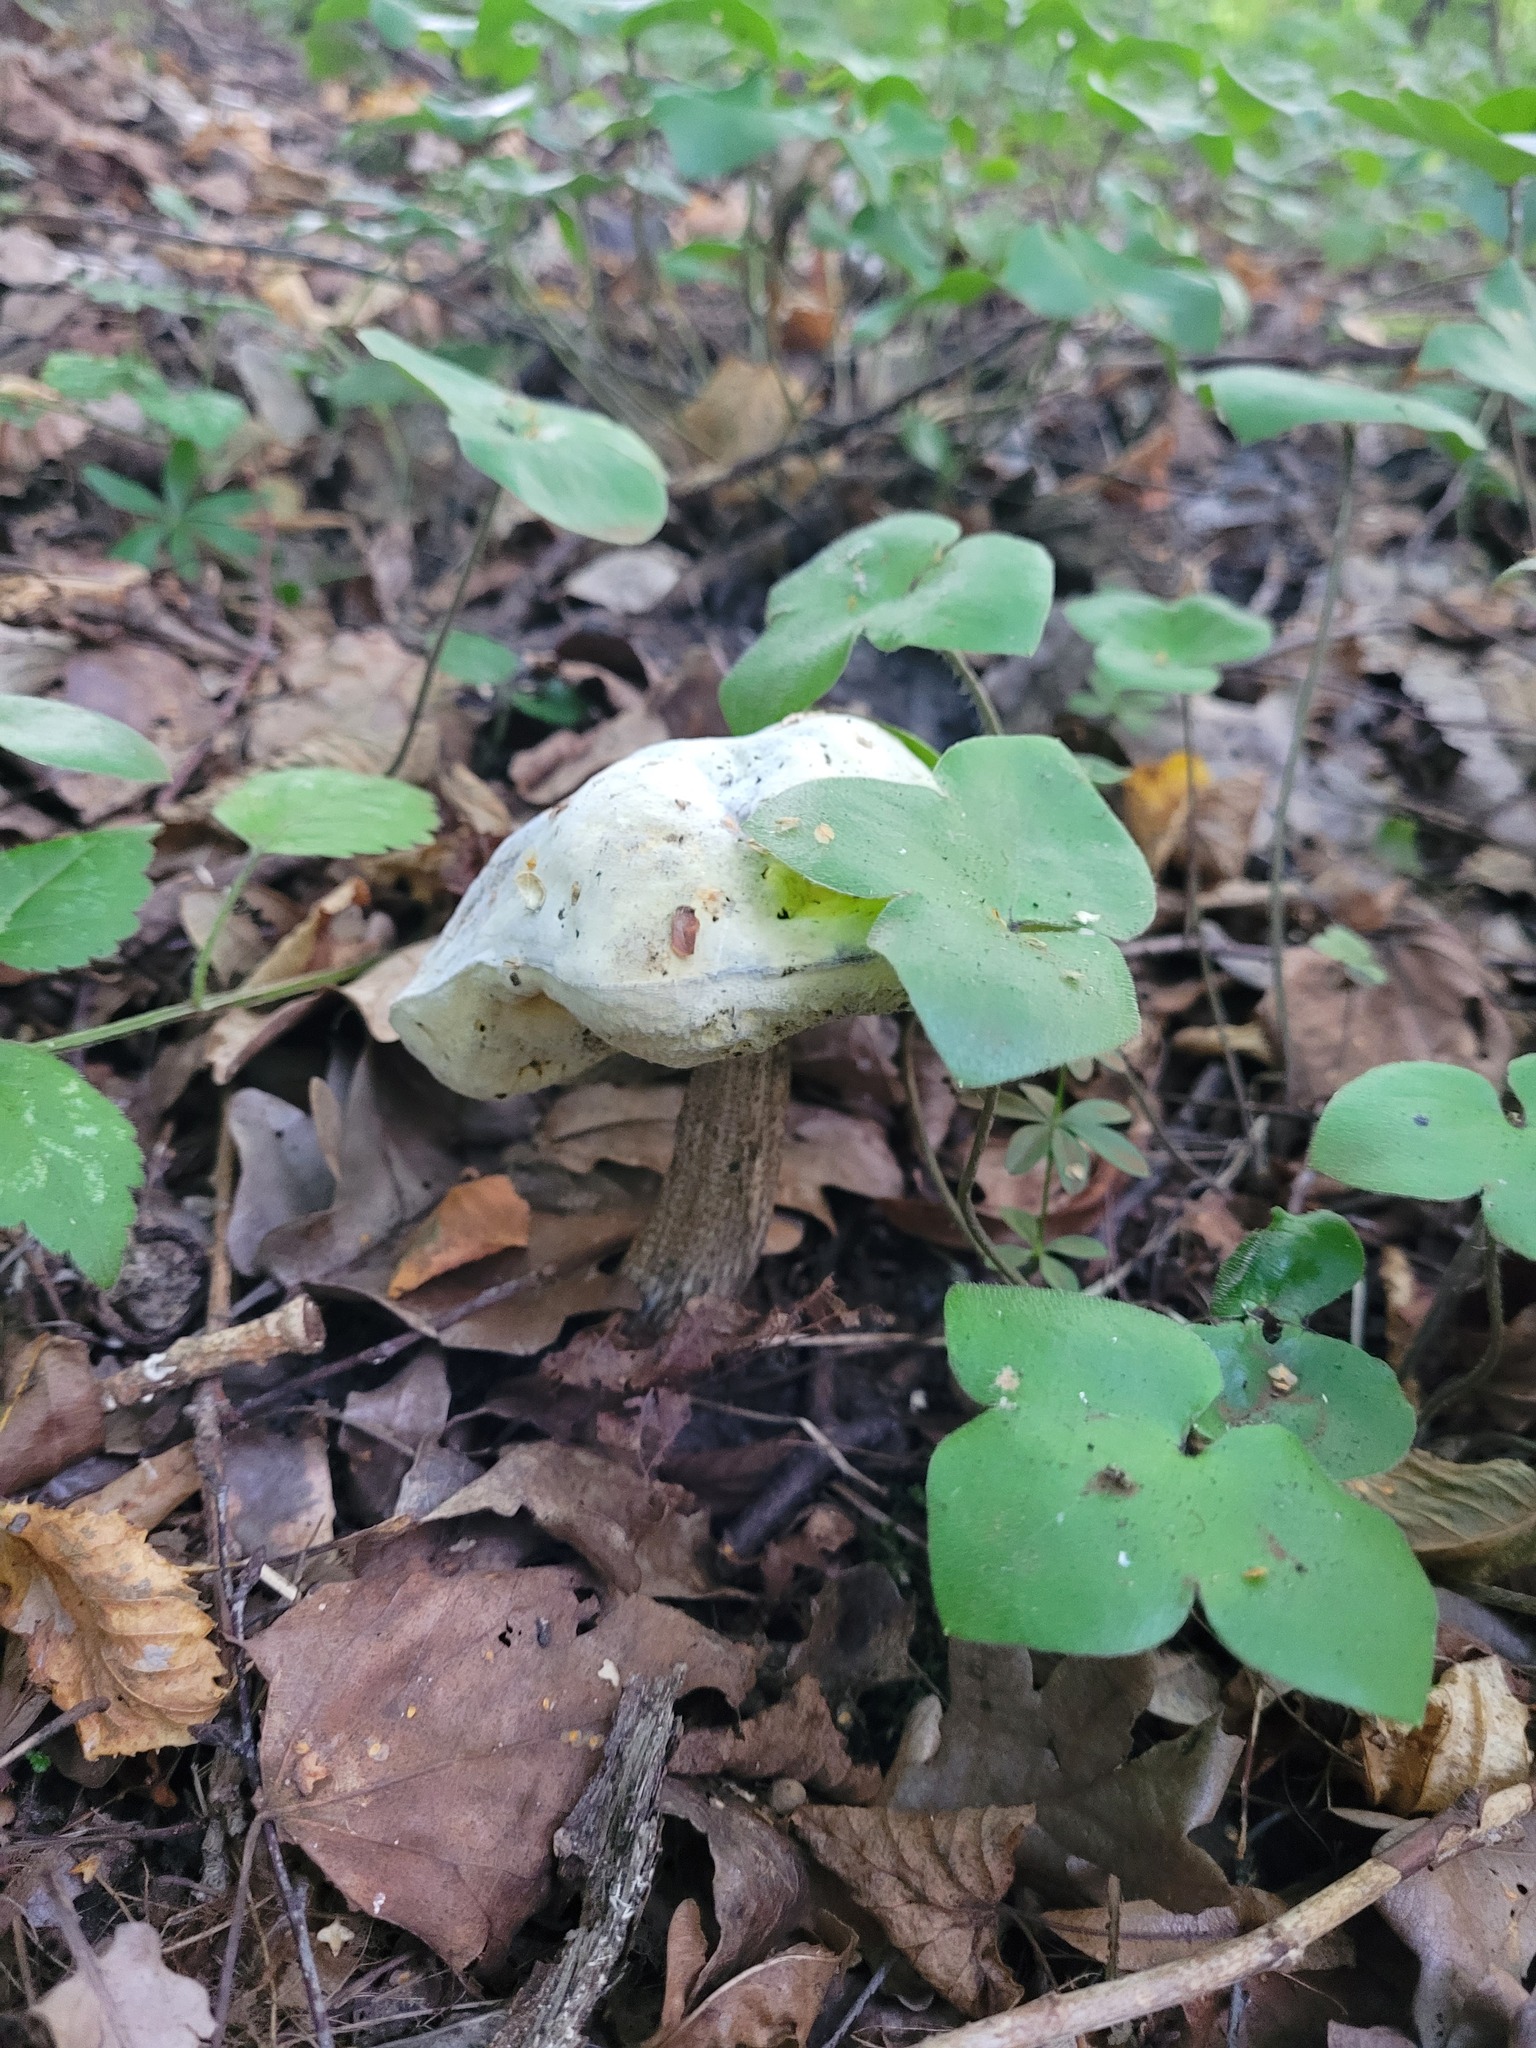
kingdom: Plantae
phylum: Tracheophyta
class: Magnoliopsida
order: Ranunculales
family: Ranunculaceae
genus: Hepatica
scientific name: Hepatica nobilis
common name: Liverleaf
